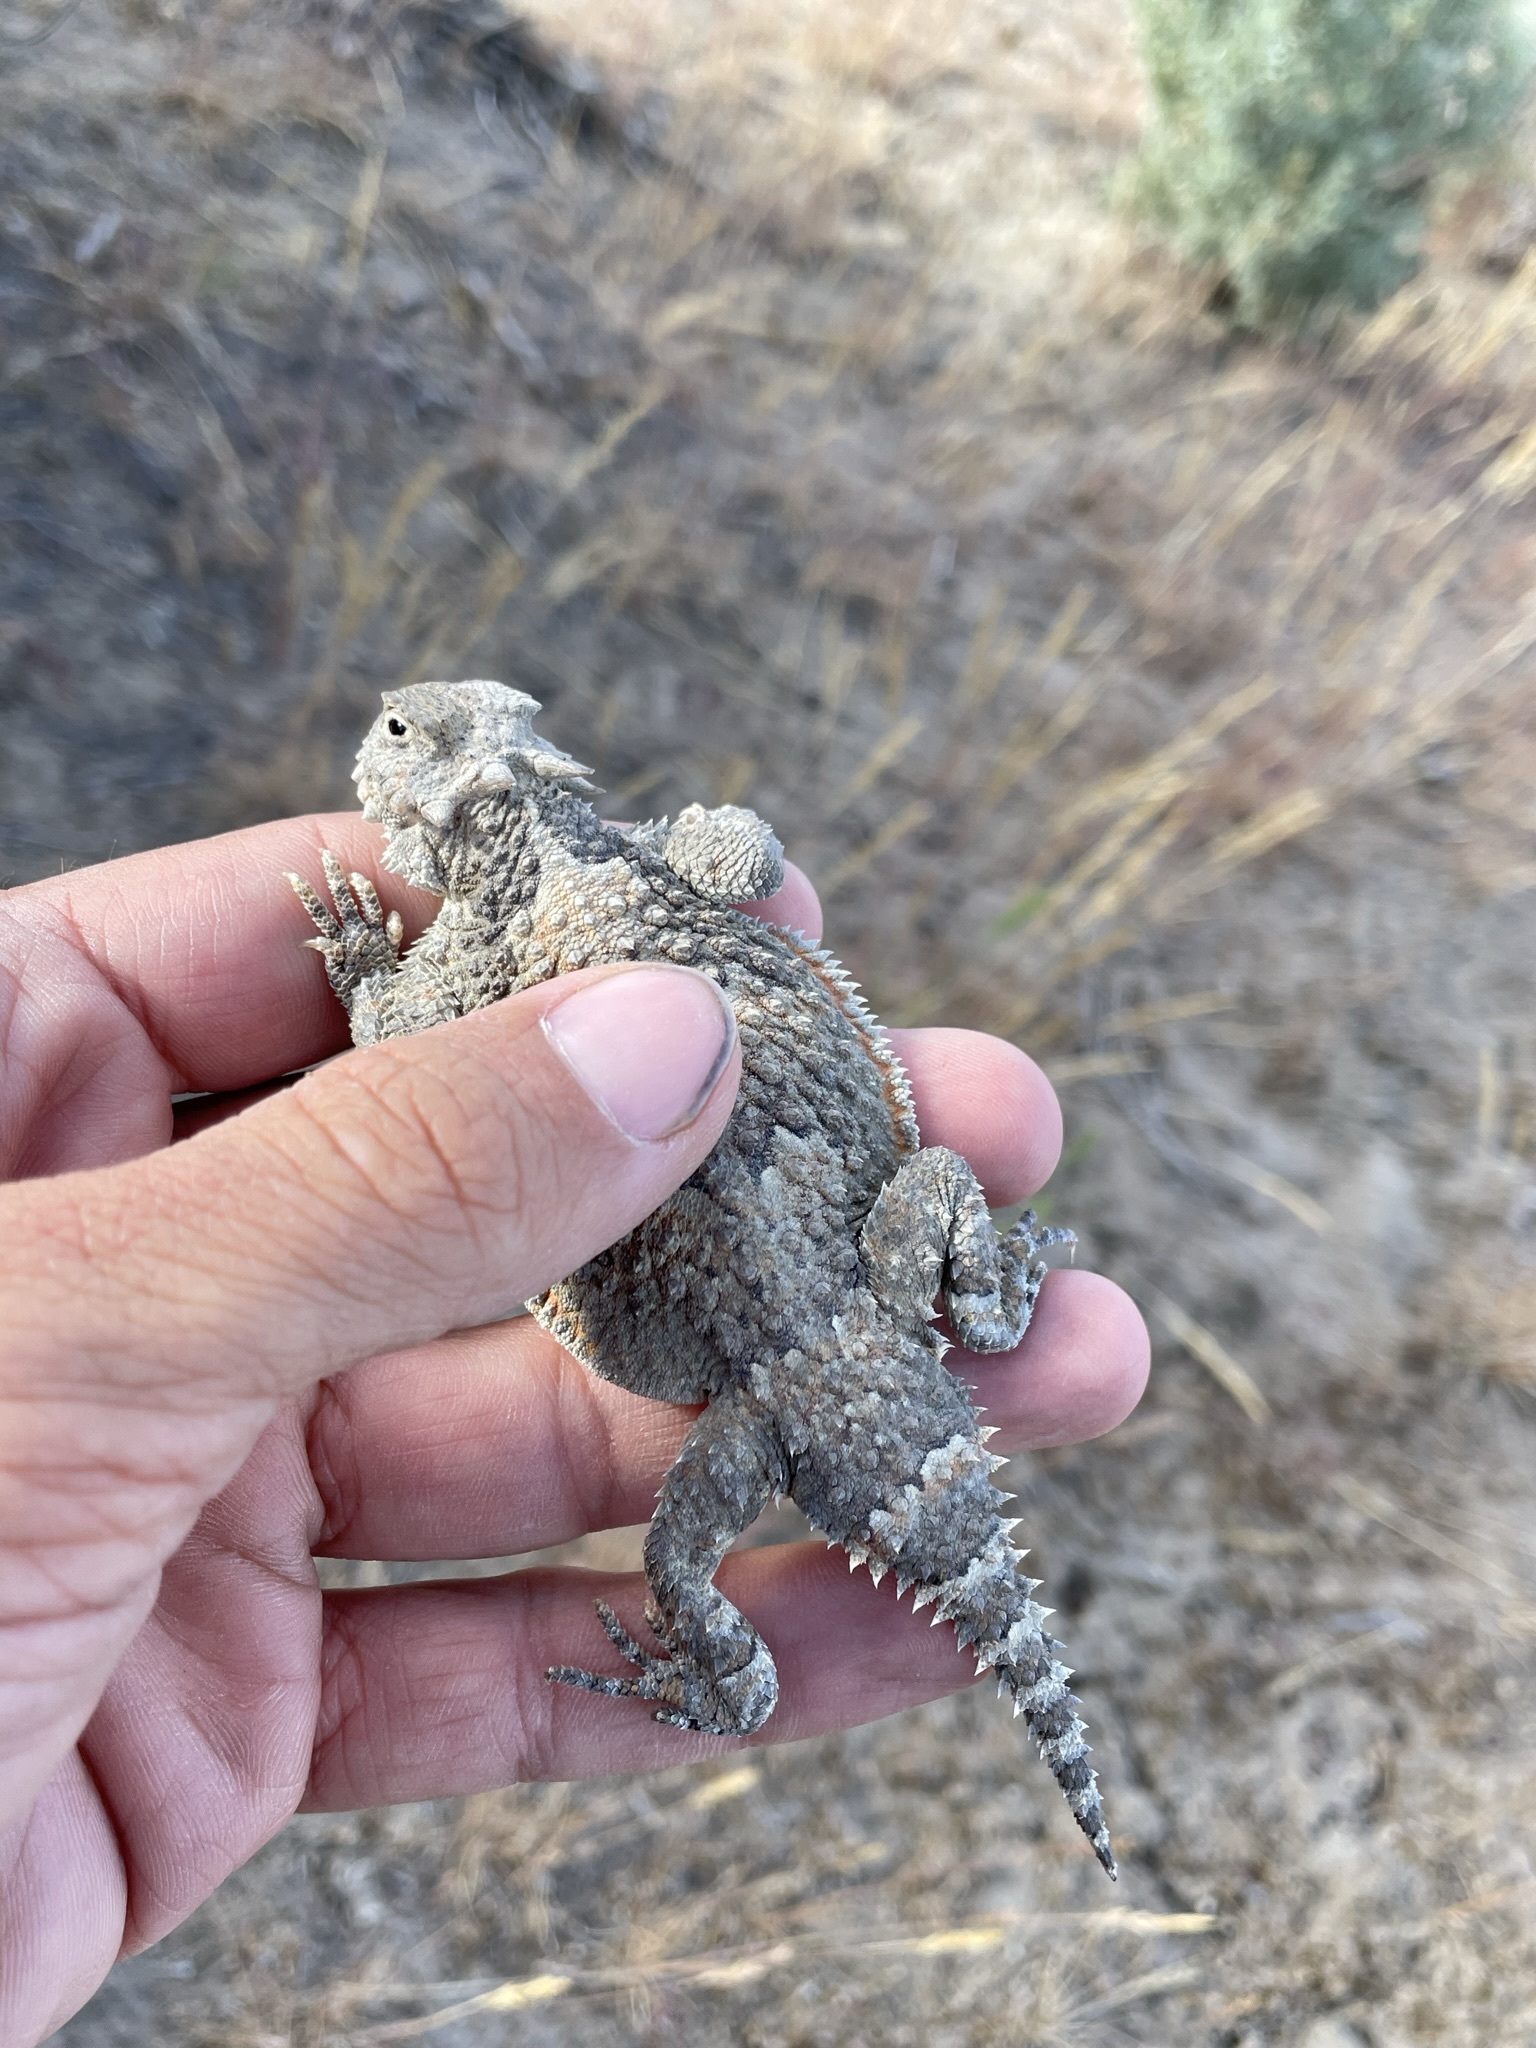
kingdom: Animalia
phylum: Chordata
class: Squamata
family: Phrynosomatidae
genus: Phrynosoma
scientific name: Phrynosoma platyrhinos
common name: Desert horned lizard
